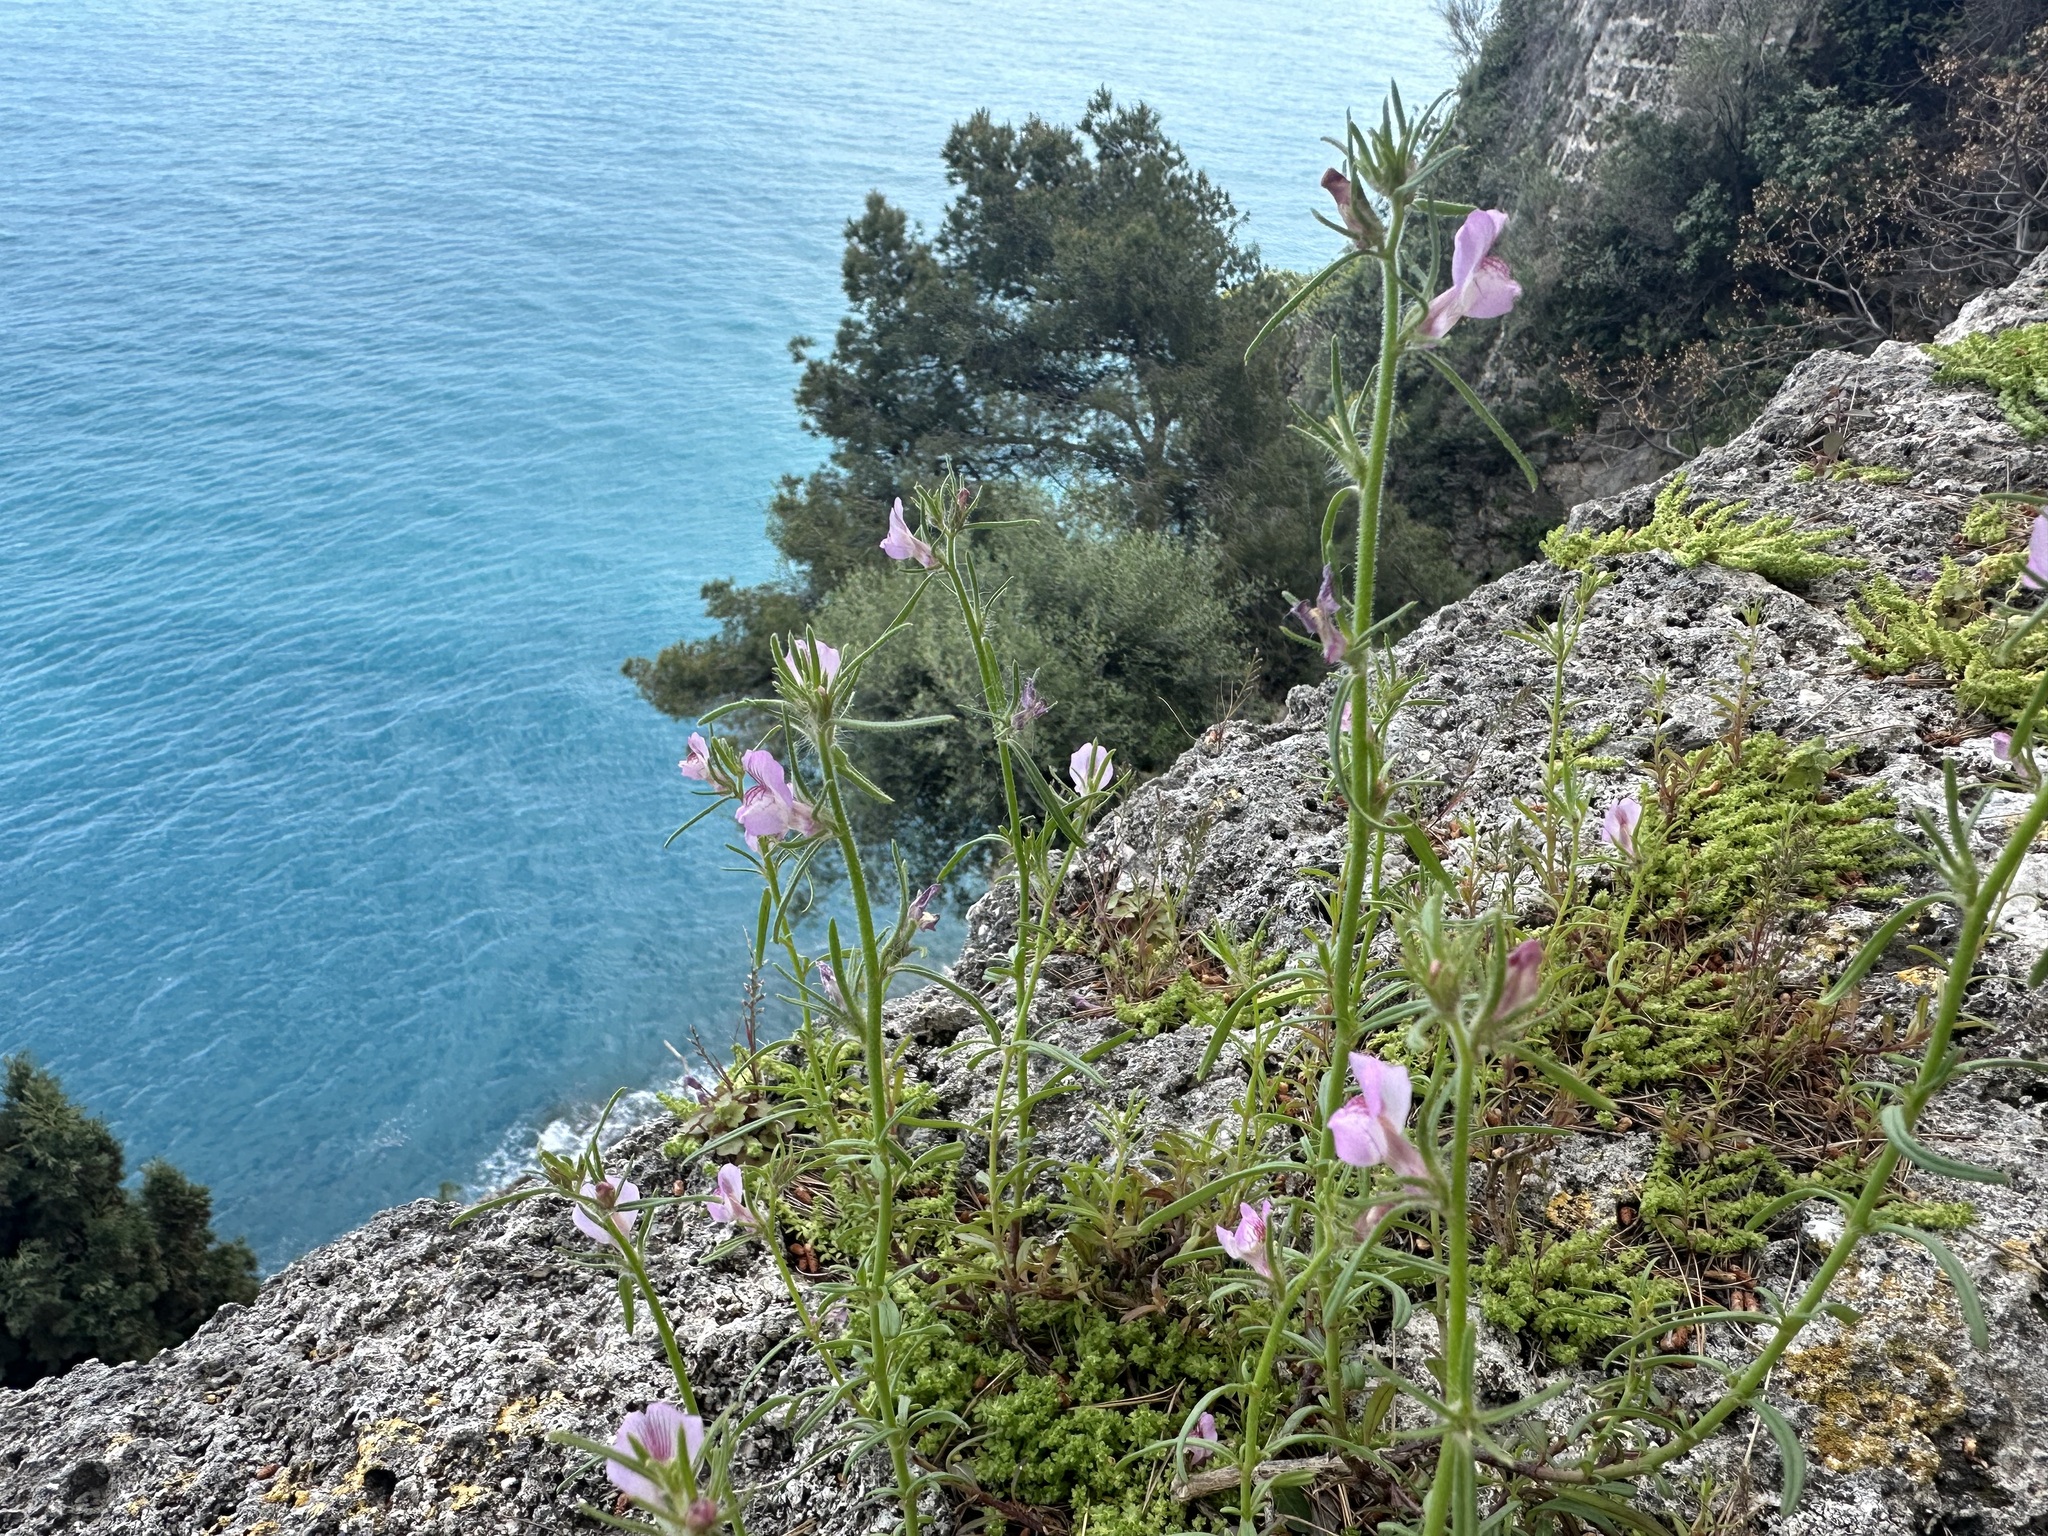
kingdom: Plantae
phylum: Tracheophyta
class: Magnoliopsida
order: Lamiales
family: Plantaginaceae
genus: Misopates
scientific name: Misopates orontium
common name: Weasel's-snout
